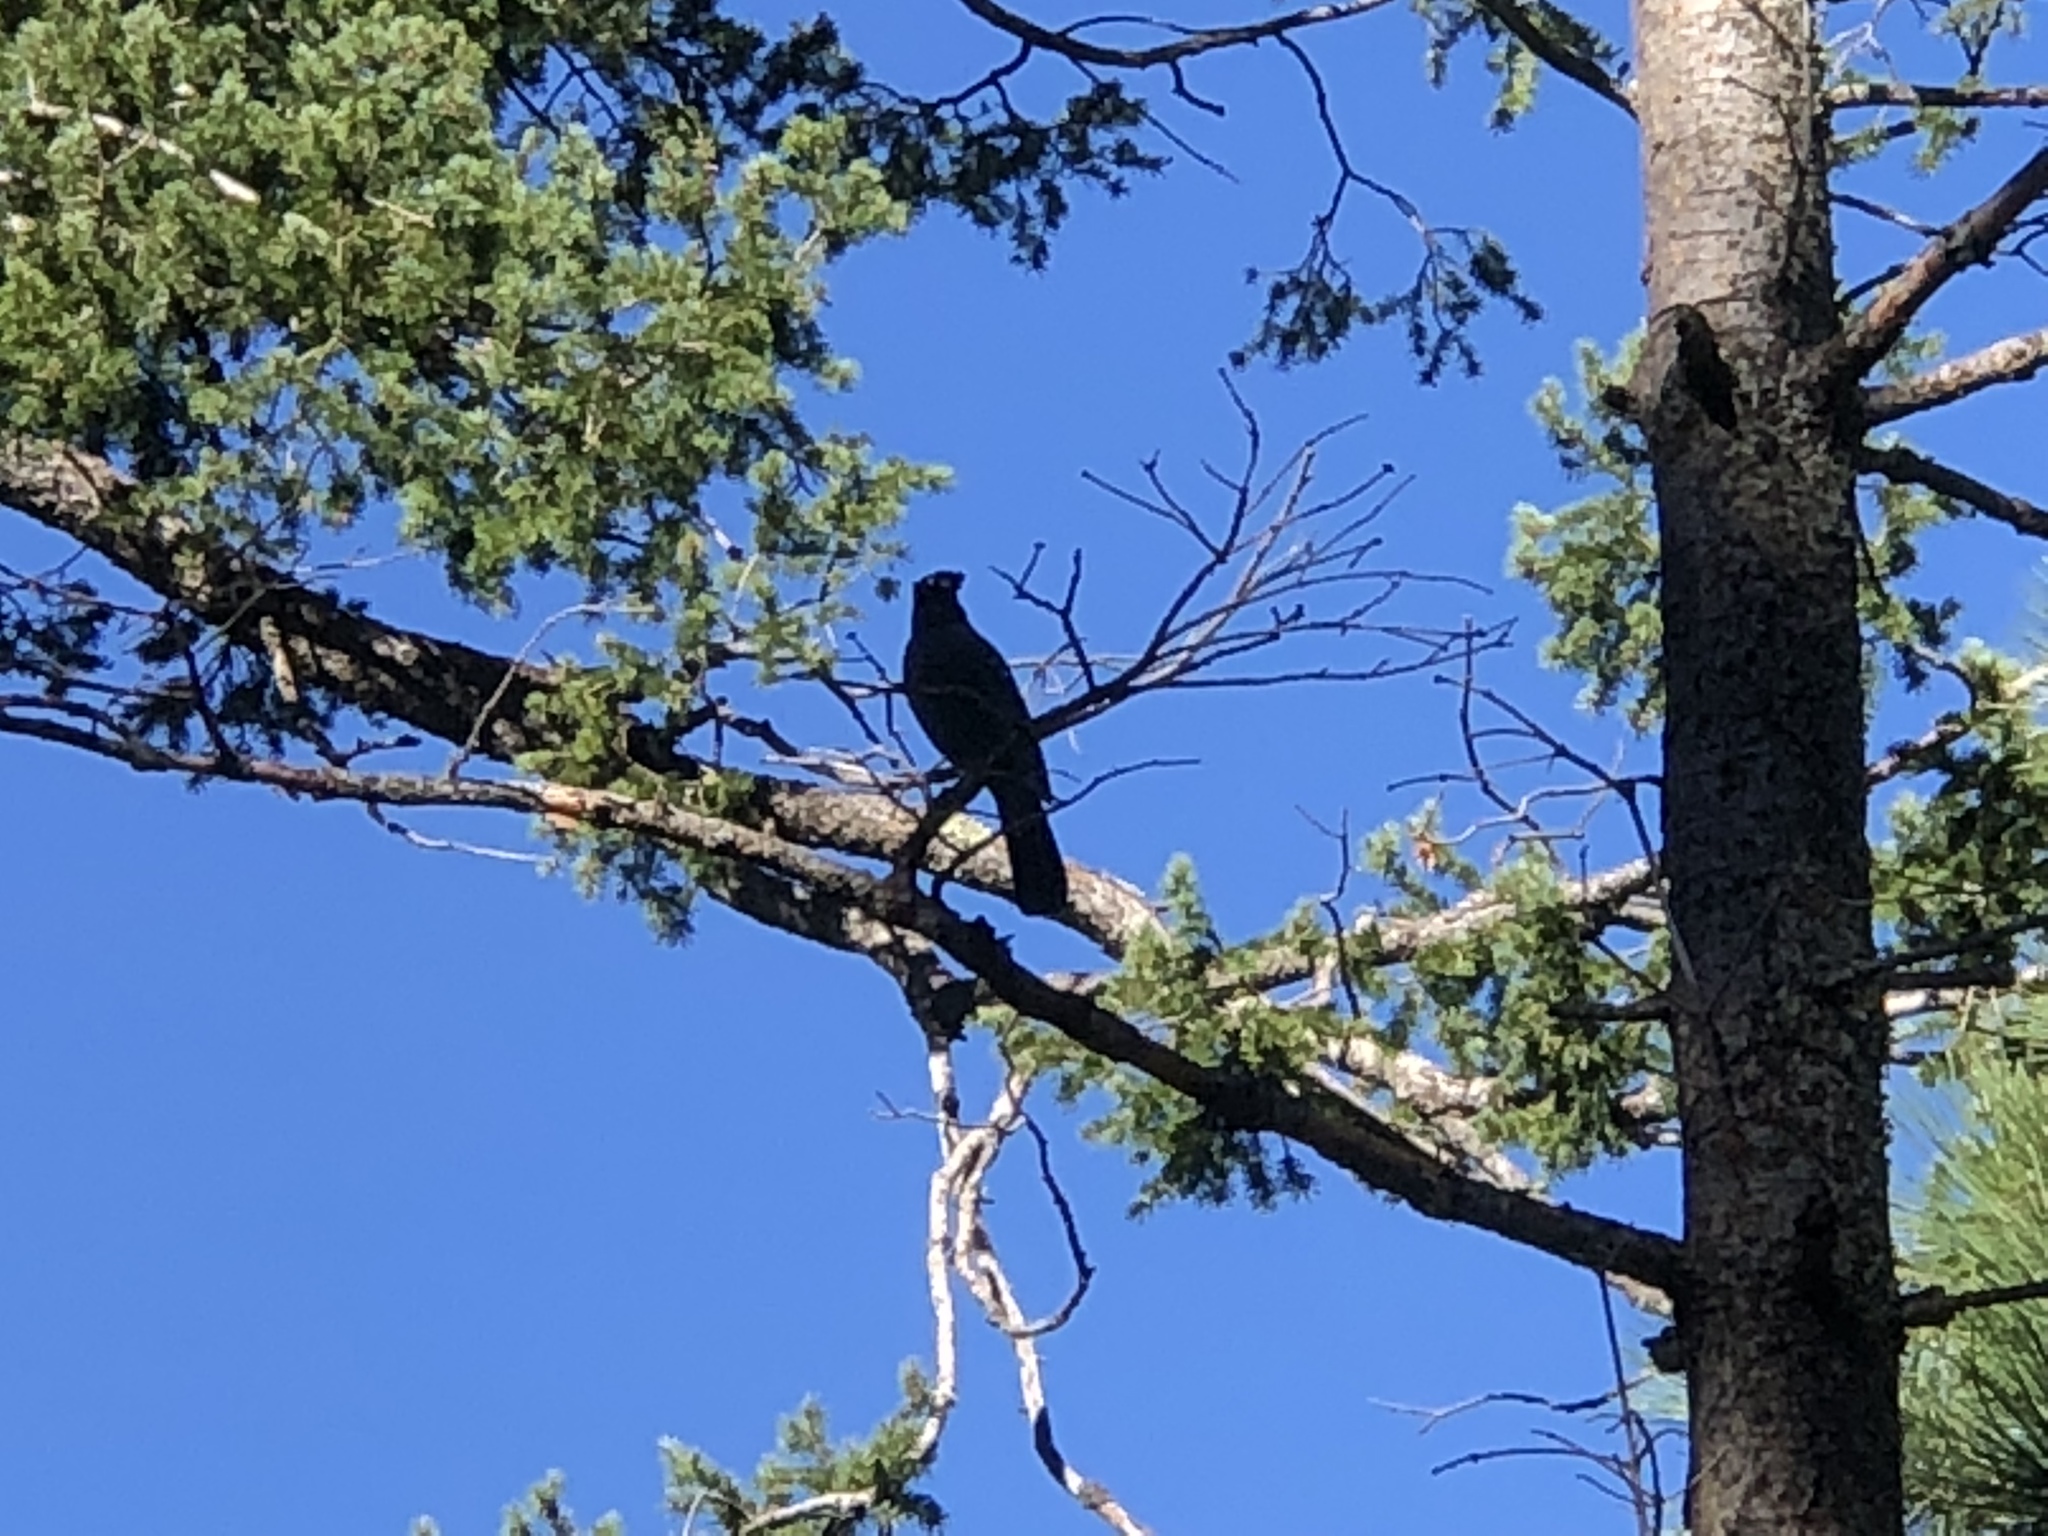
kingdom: Animalia
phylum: Chordata
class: Aves
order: Passeriformes
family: Corvidae
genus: Cyanocitta
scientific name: Cyanocitta stelleri
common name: Steller's jay
